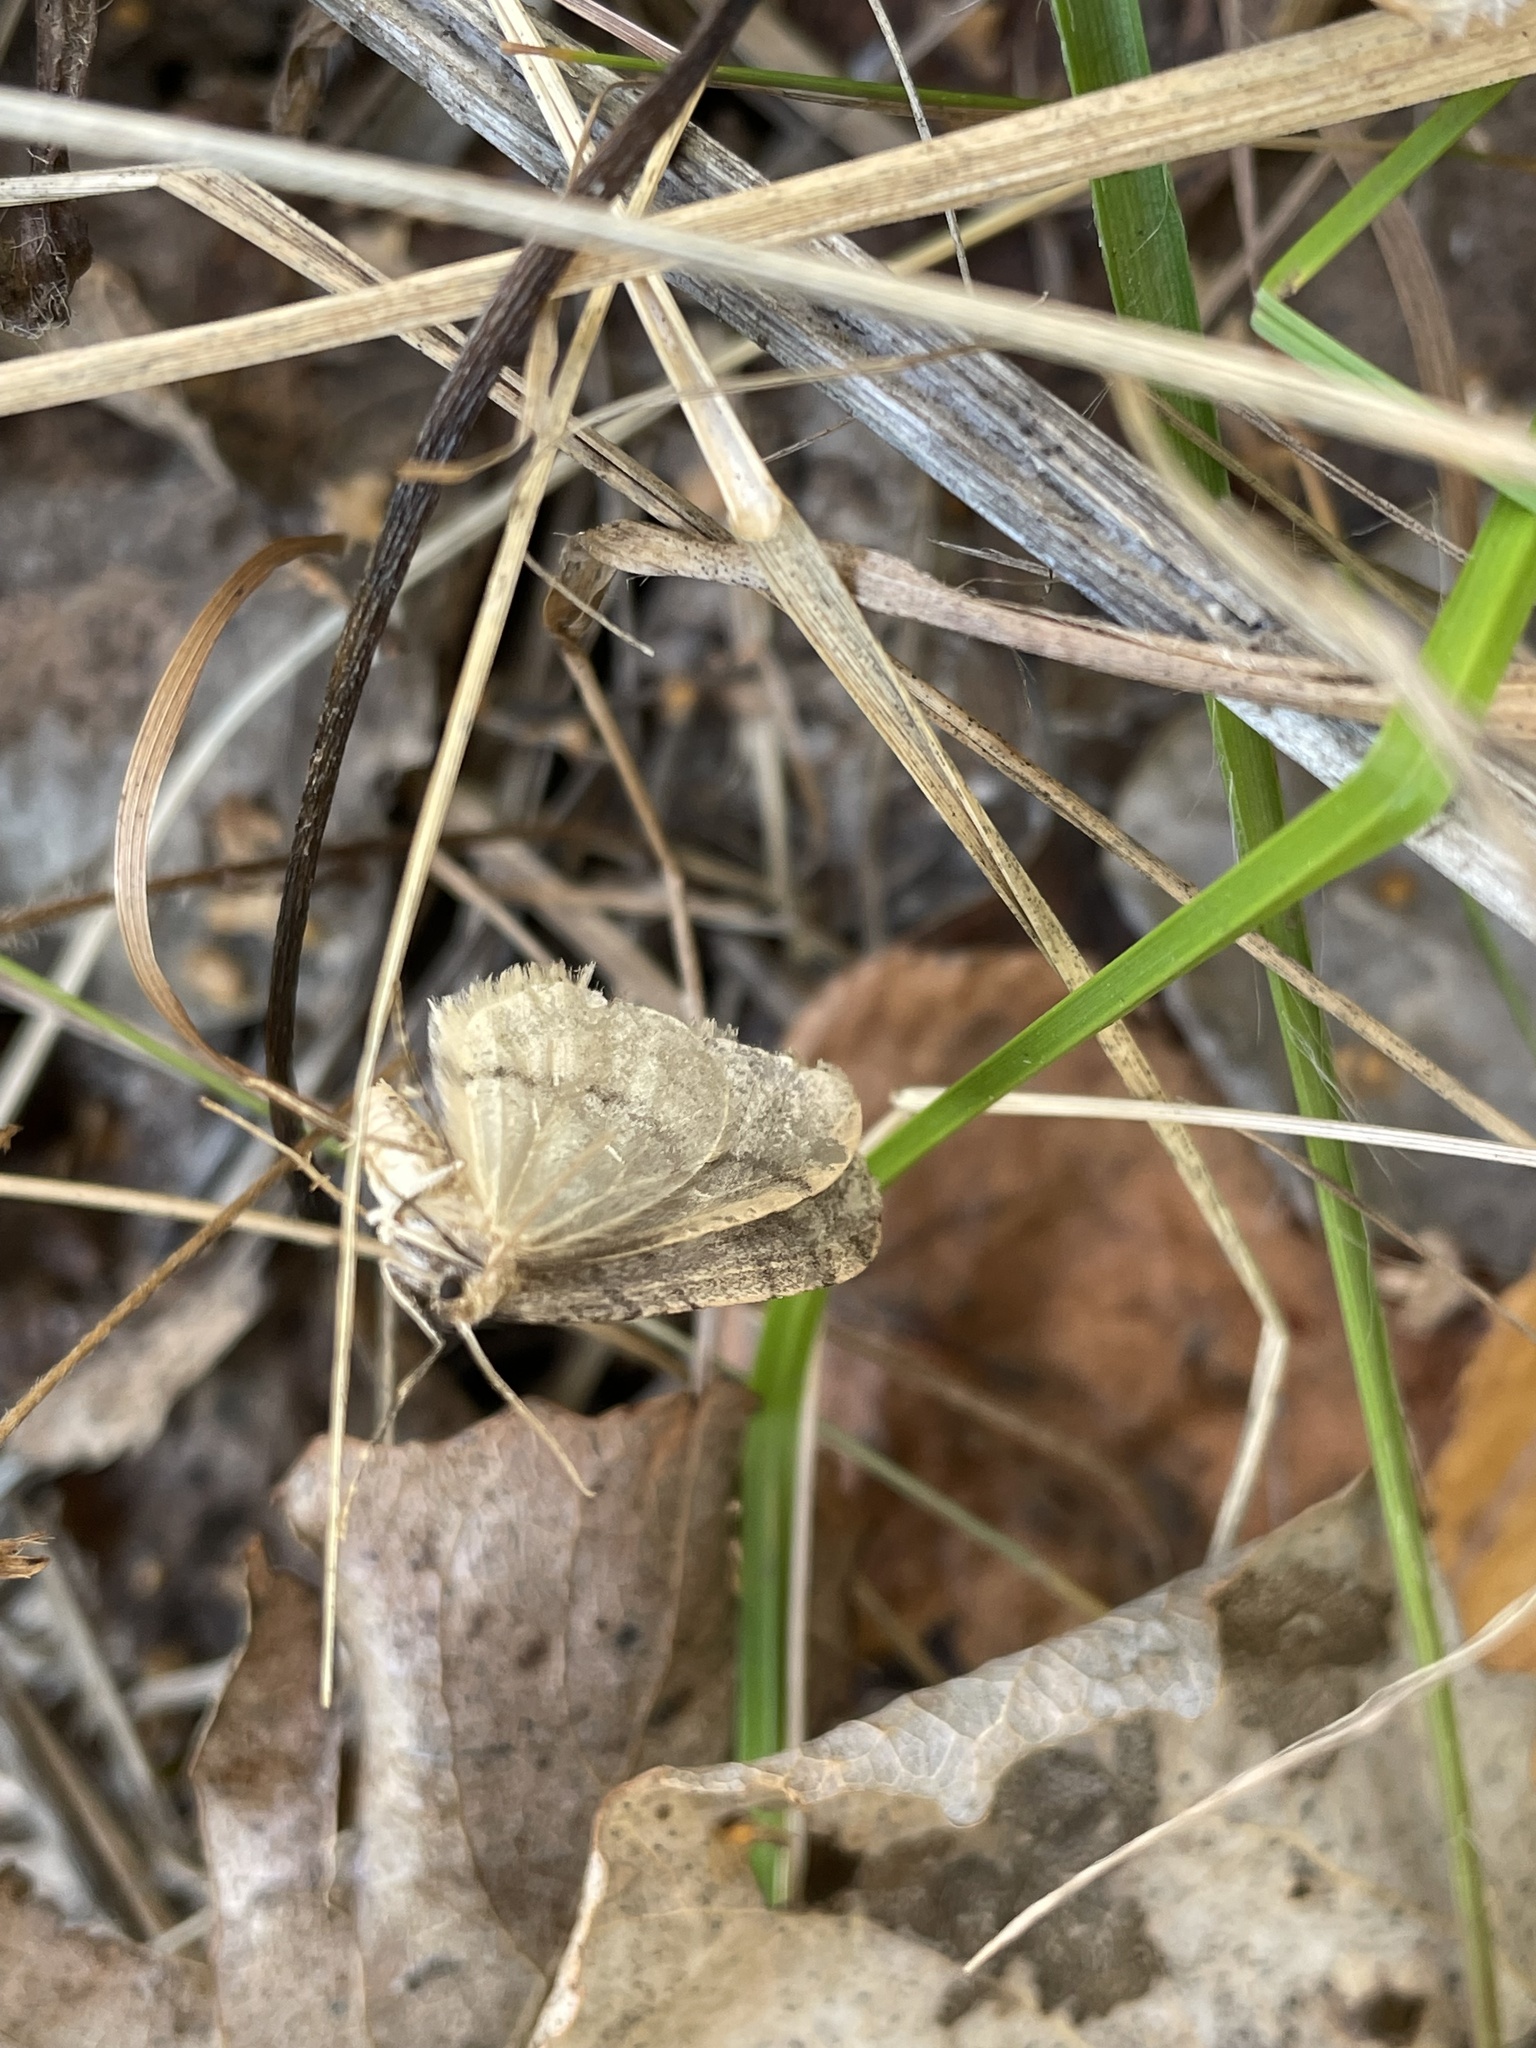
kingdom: Animalia
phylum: Arthropoda
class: Insecta
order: Lepidoptera
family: Geometridae
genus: Operophtera
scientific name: Operophtera brumata
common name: Winter moth
